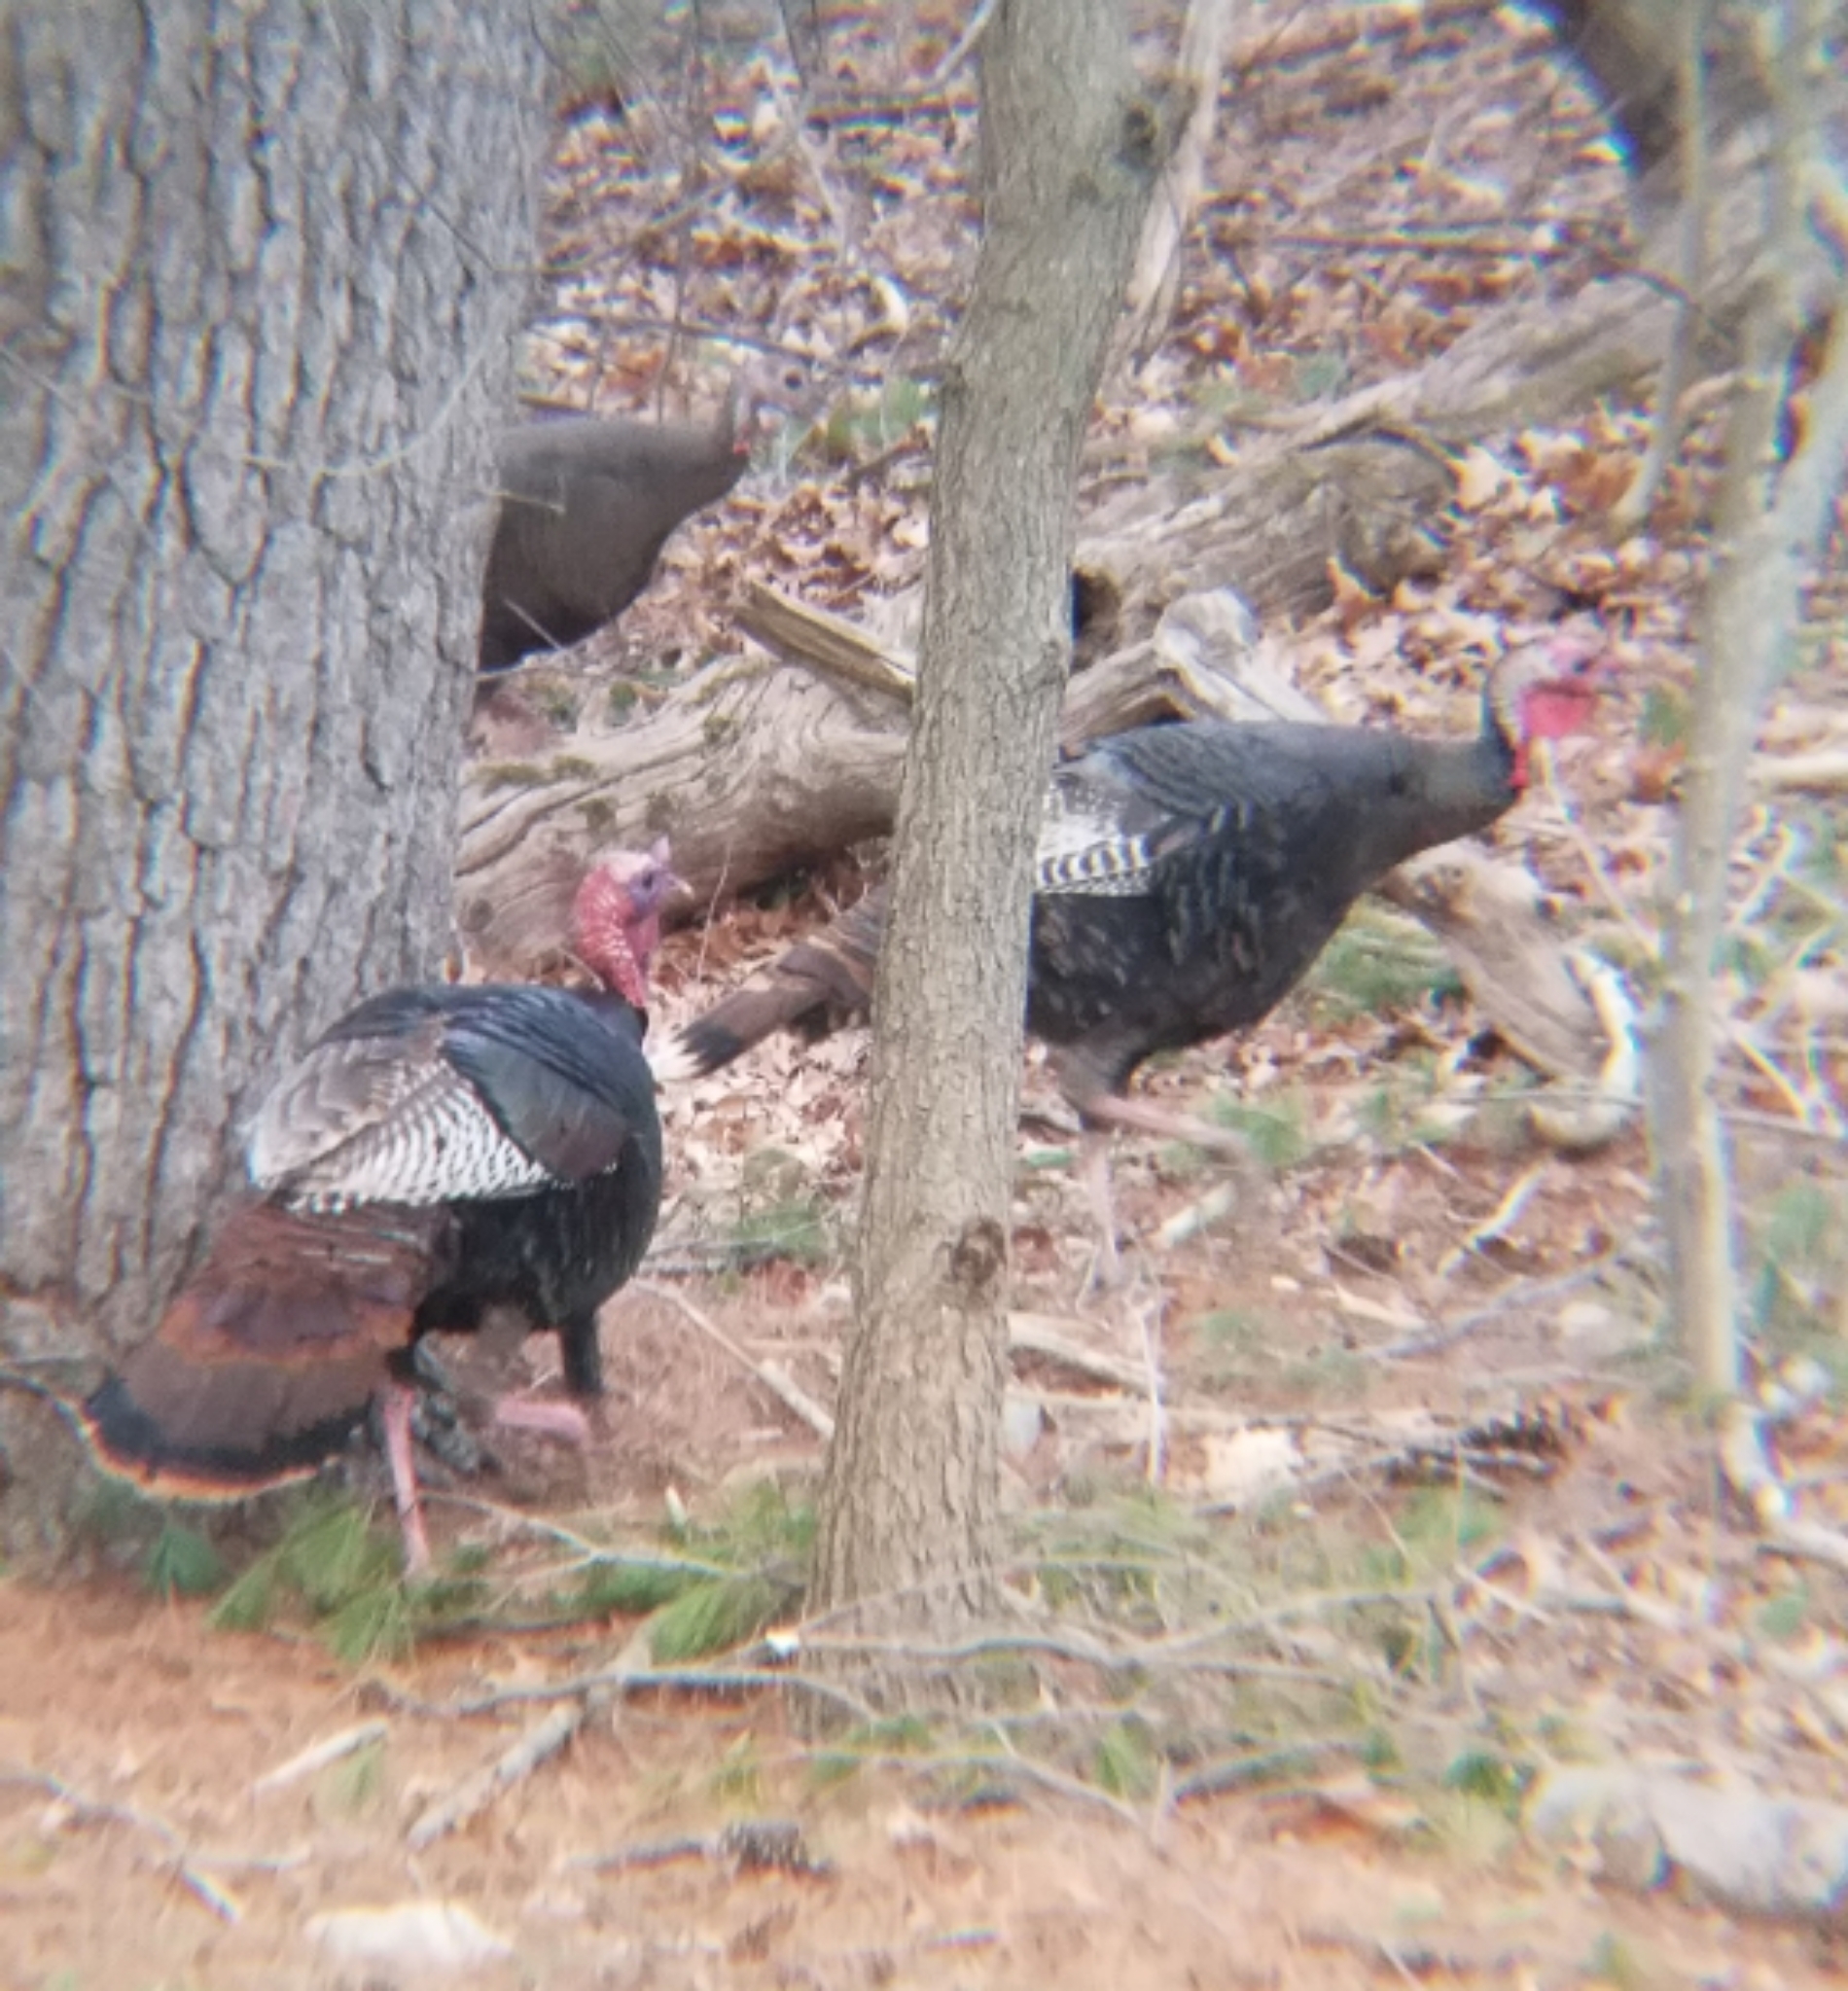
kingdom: Animalia
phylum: Chordata
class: Aves
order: Galliformes
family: Phasianidae
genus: Meleagris
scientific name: Meleagris gallopavo
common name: Wild turkey
